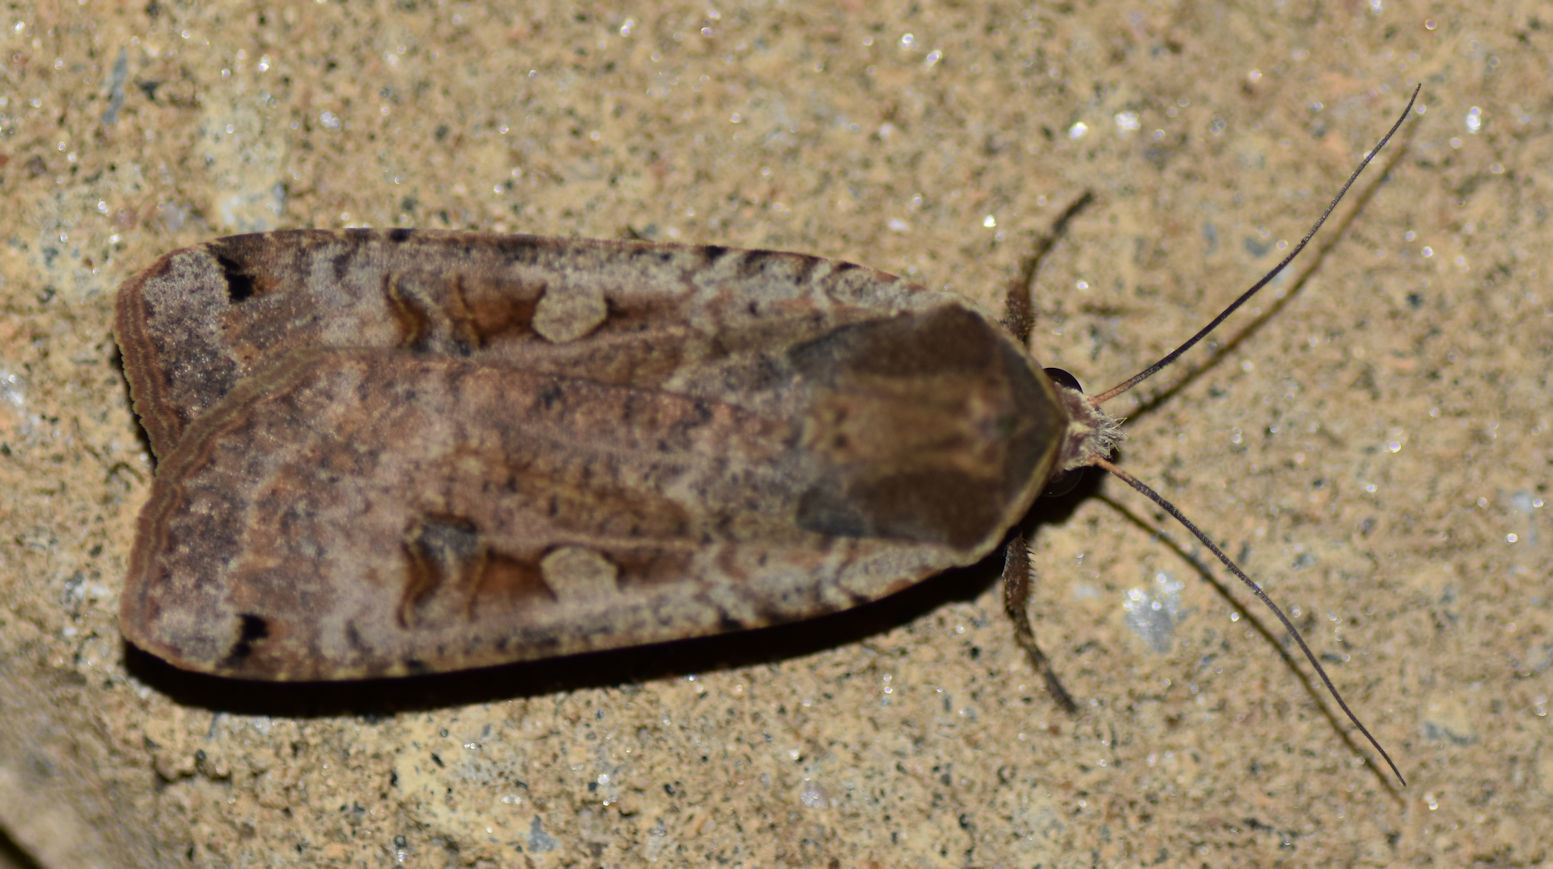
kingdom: Animalia
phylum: Arthropoda
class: Insecta
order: Lepidoptera
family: Noctuidae
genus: Noctua
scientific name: Noctua pronuba
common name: Large yellow underwing
